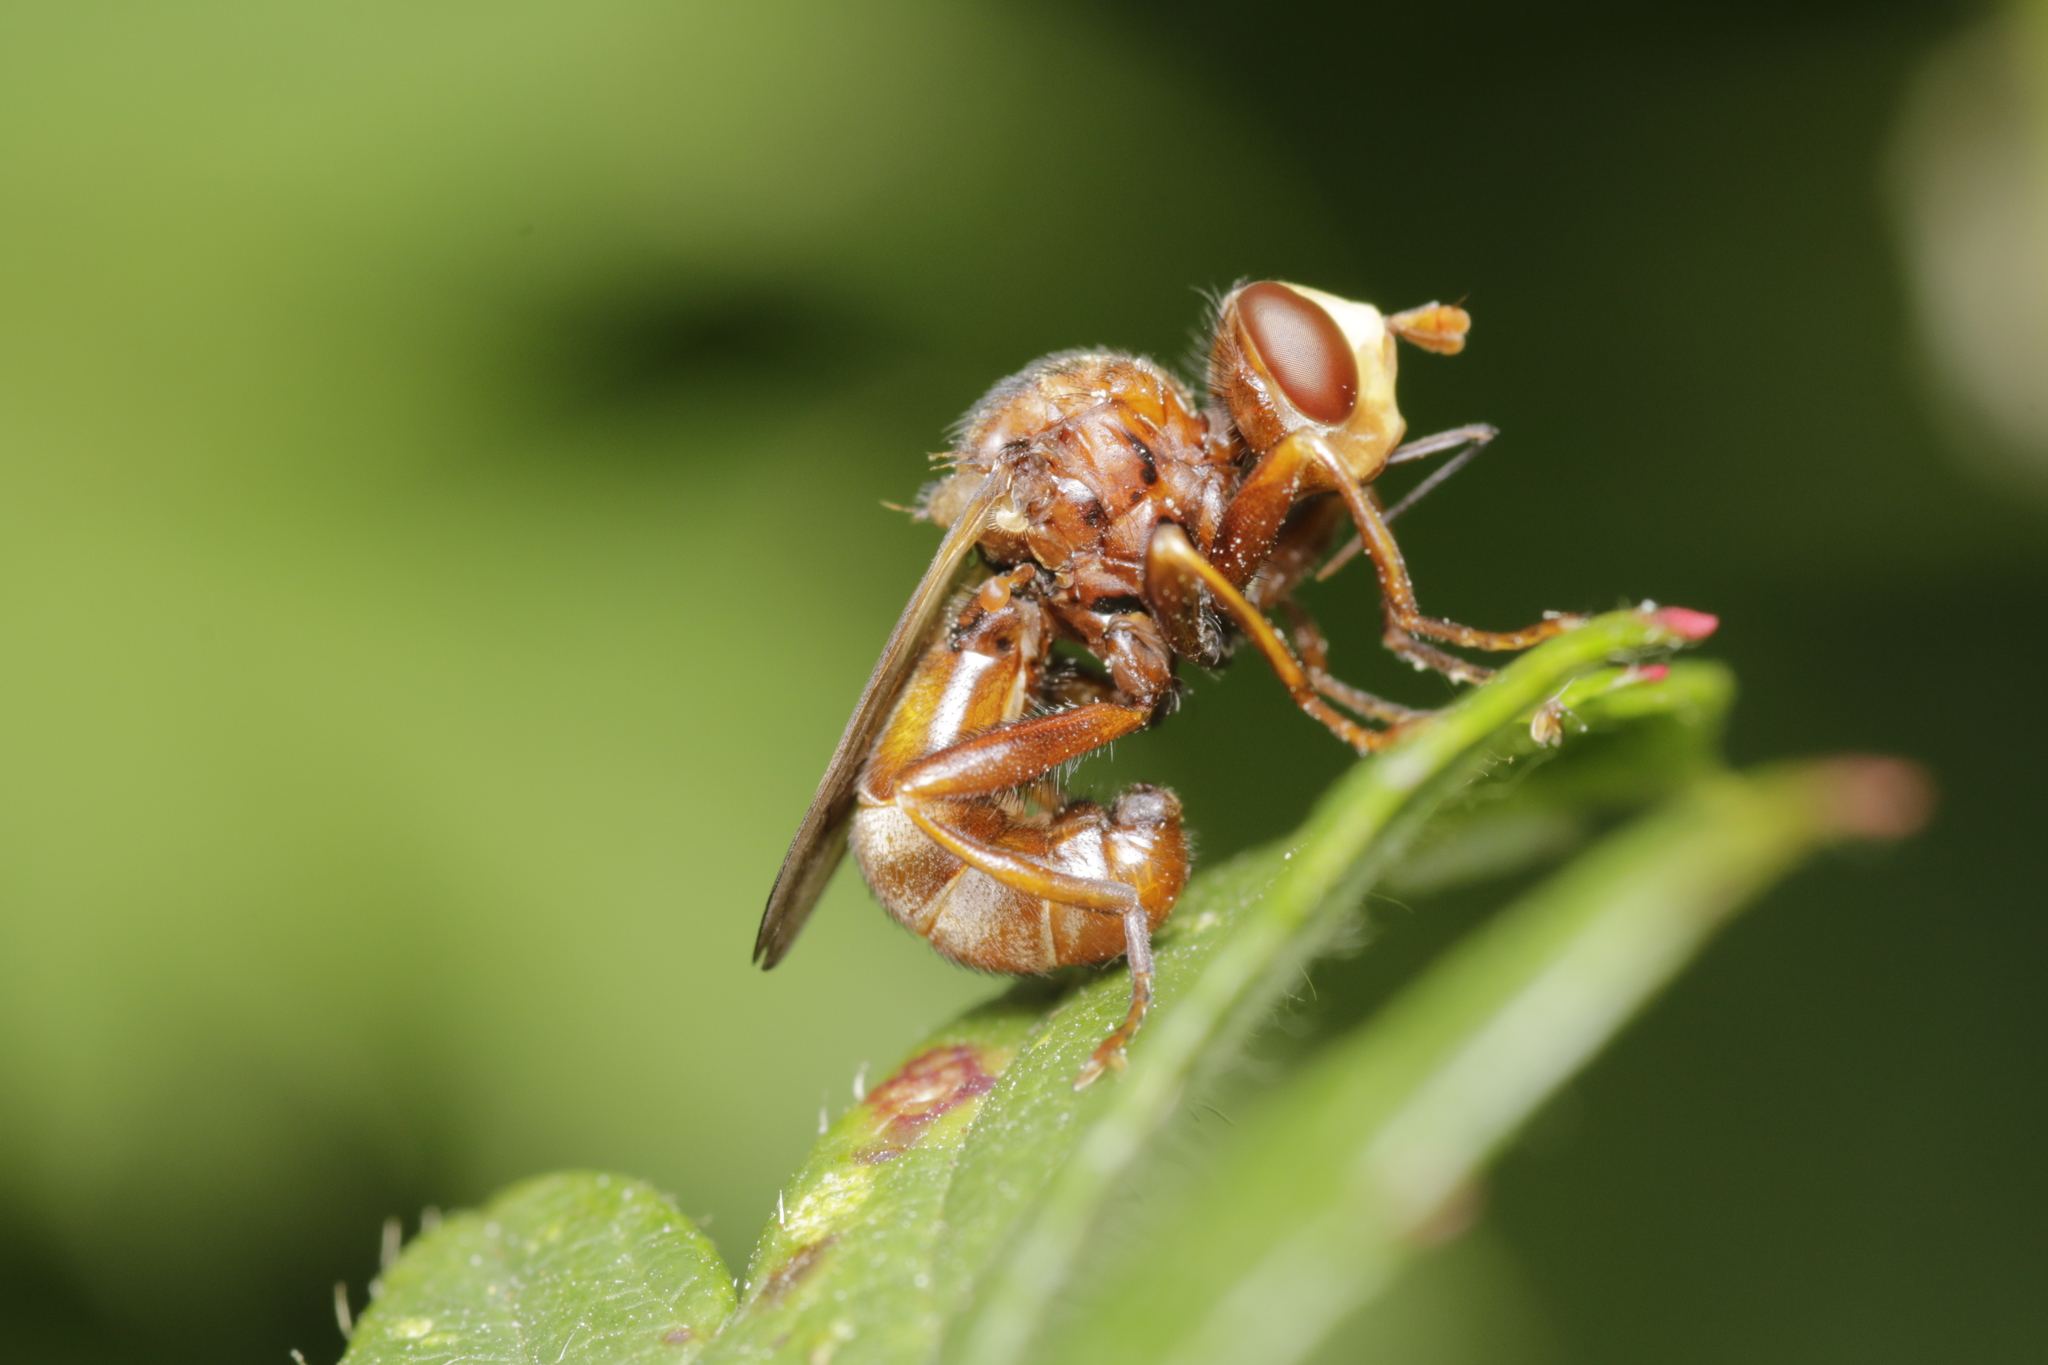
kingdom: Animalia
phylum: Arthropoda
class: Insecta
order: Diptera
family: Conopidae
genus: Sicus
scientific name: Sicus ferrugineus
